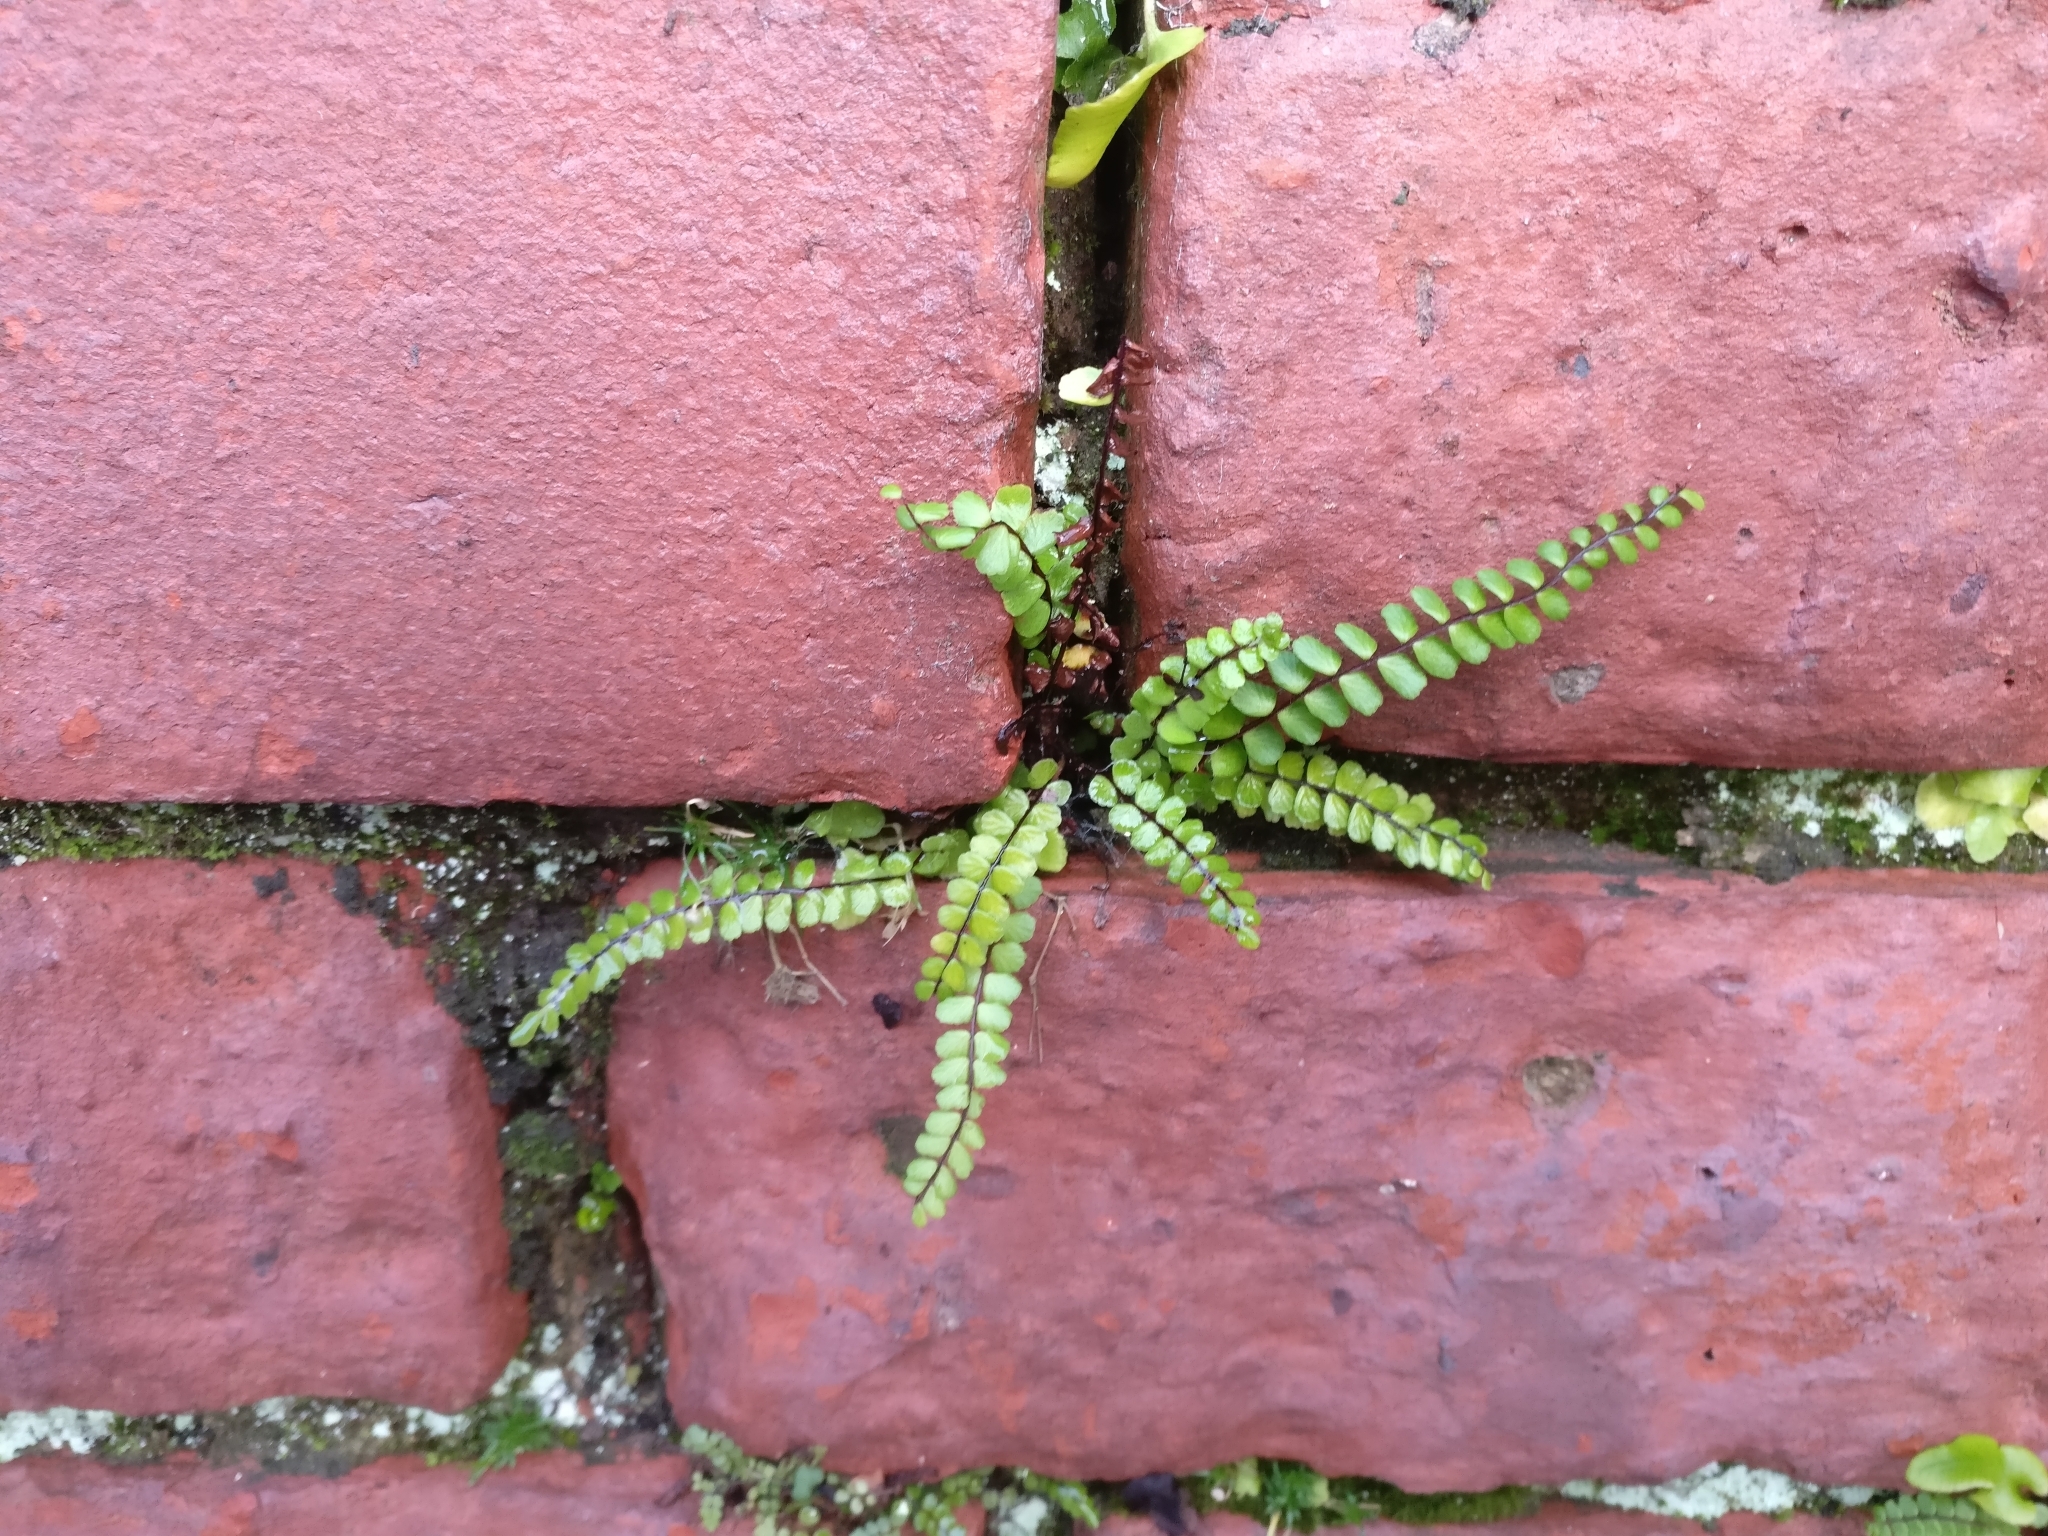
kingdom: Plantae
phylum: Tracheophyta
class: Polypodiopsida
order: Polypodiales
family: Aspleniaceae
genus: Asplenium
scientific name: Asplenium trichomanes
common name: Maidenhair spleenwort
